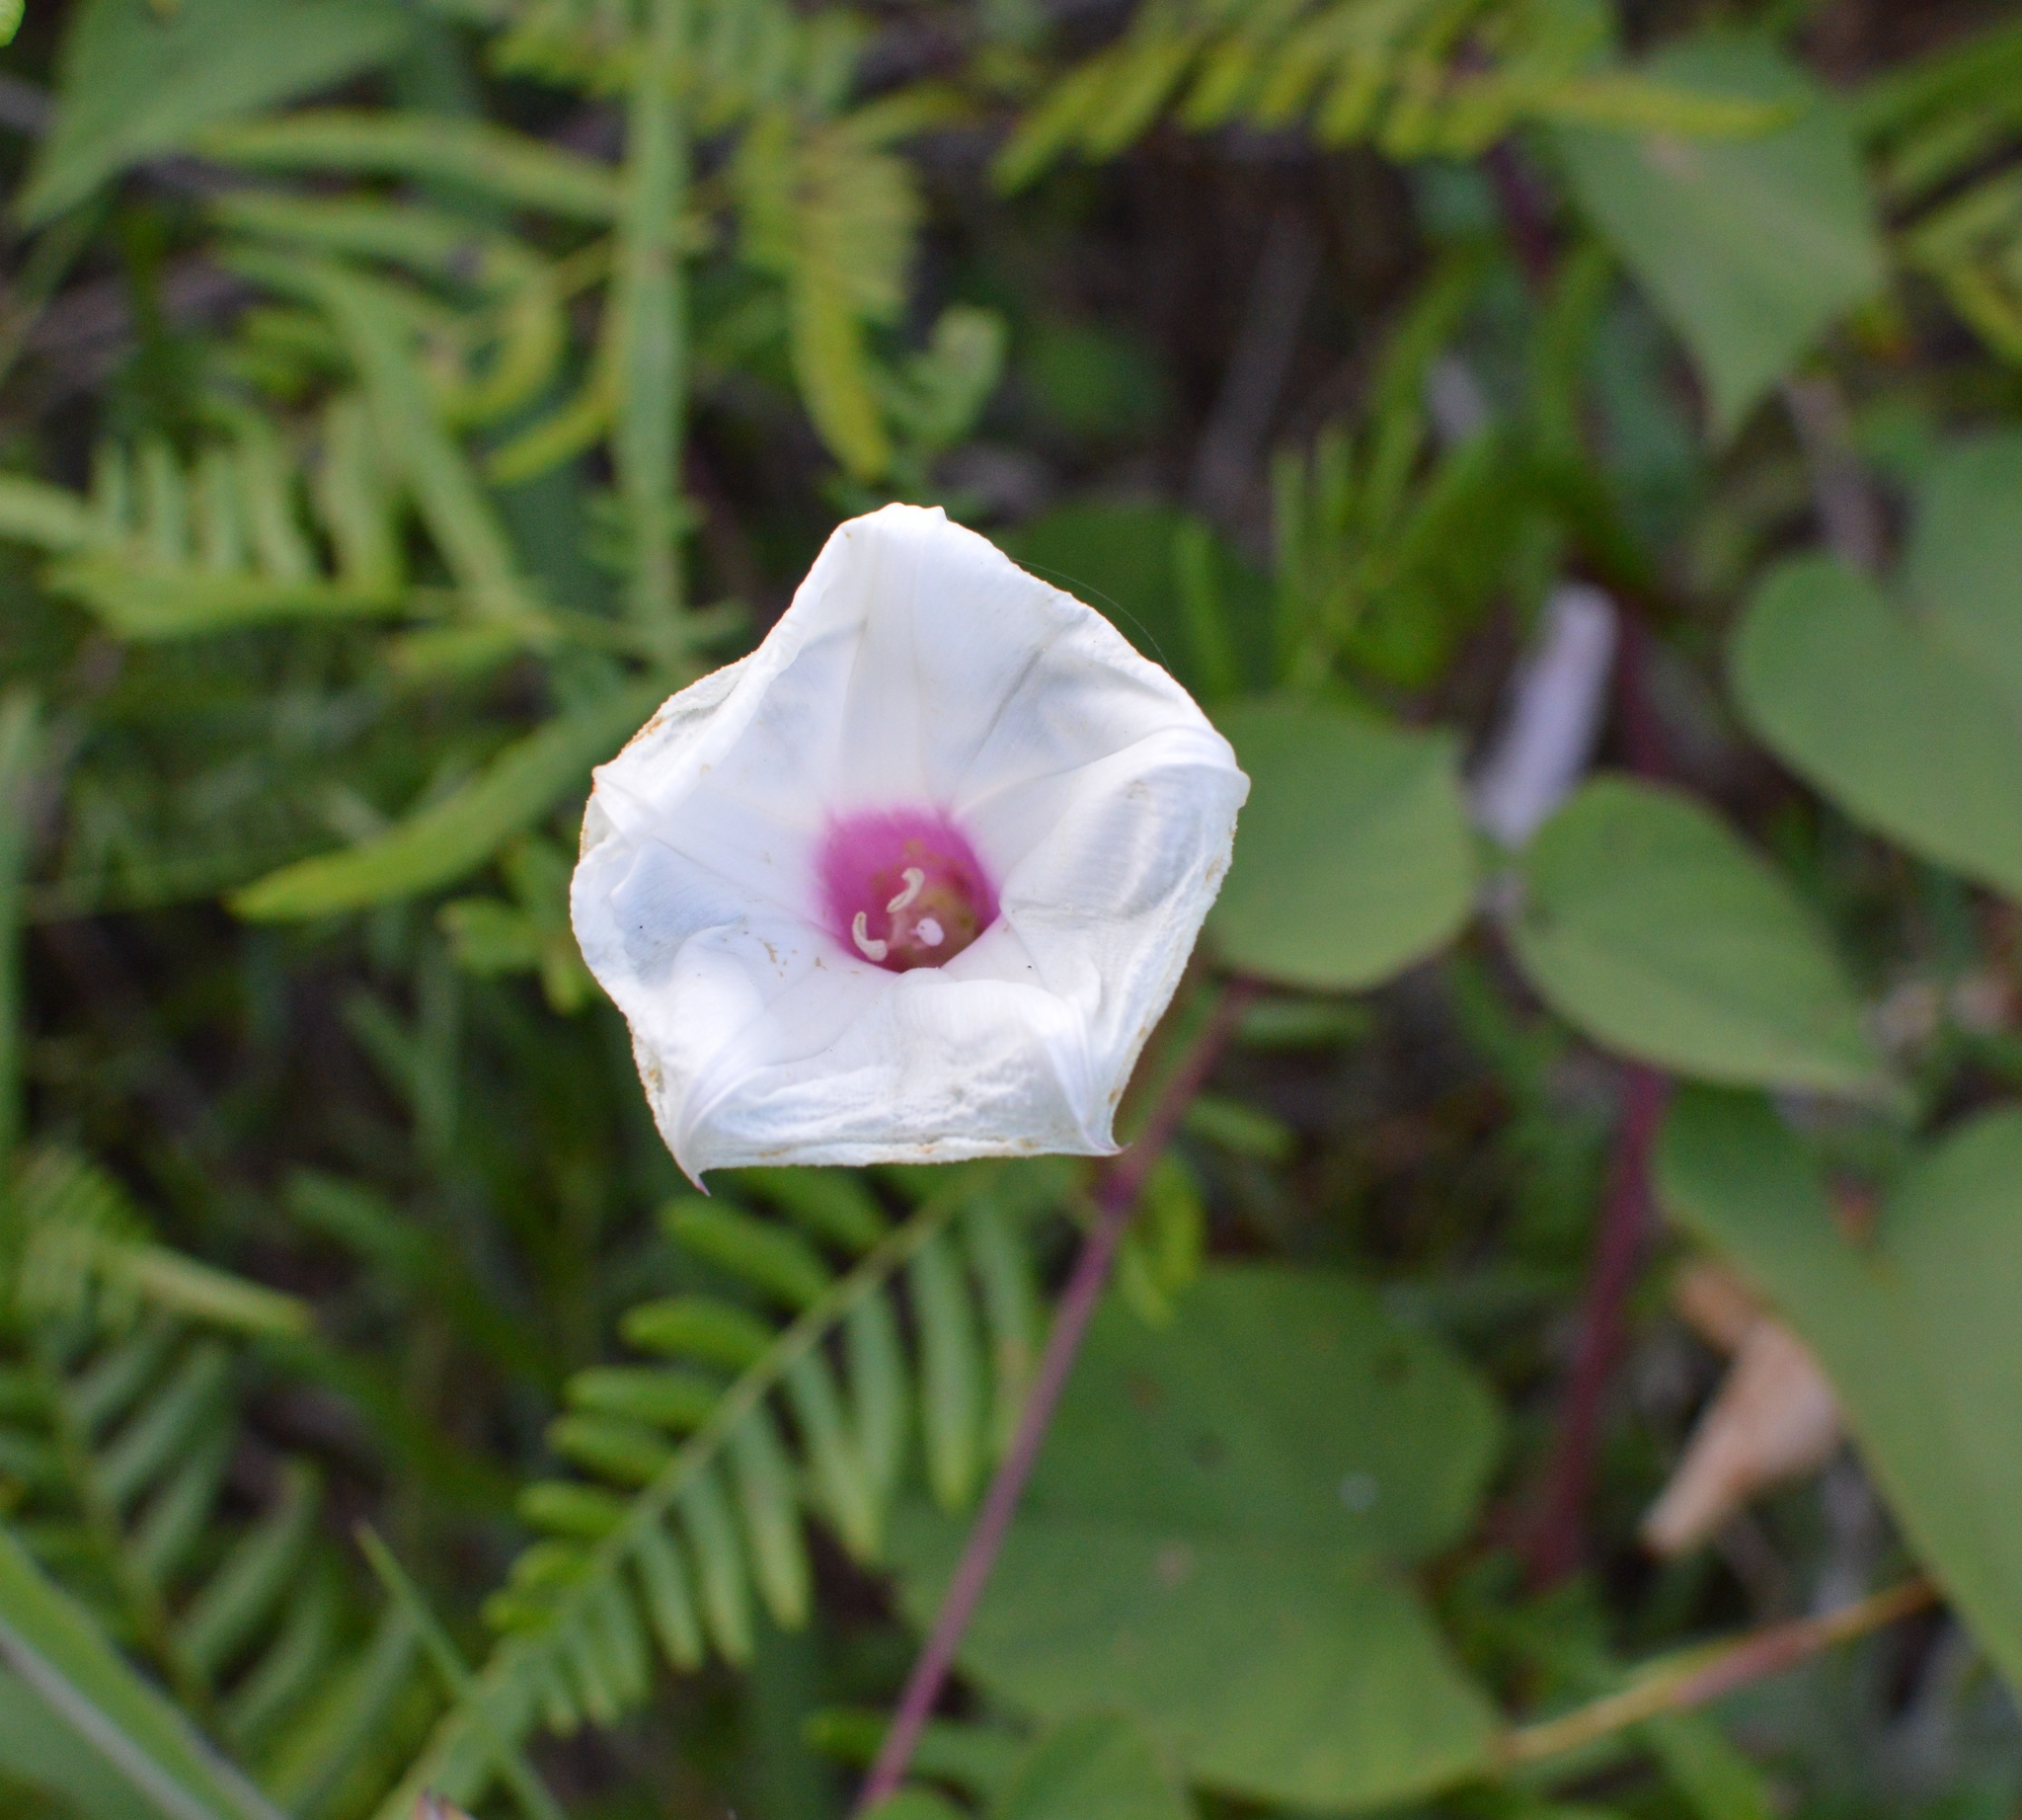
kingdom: Plantae
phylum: Tracheophyta
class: Magnoliopsida
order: Solanales
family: Convolvulaceae
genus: Ipomoea
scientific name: Ipomoea pandurata
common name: Man-of-the-earth
